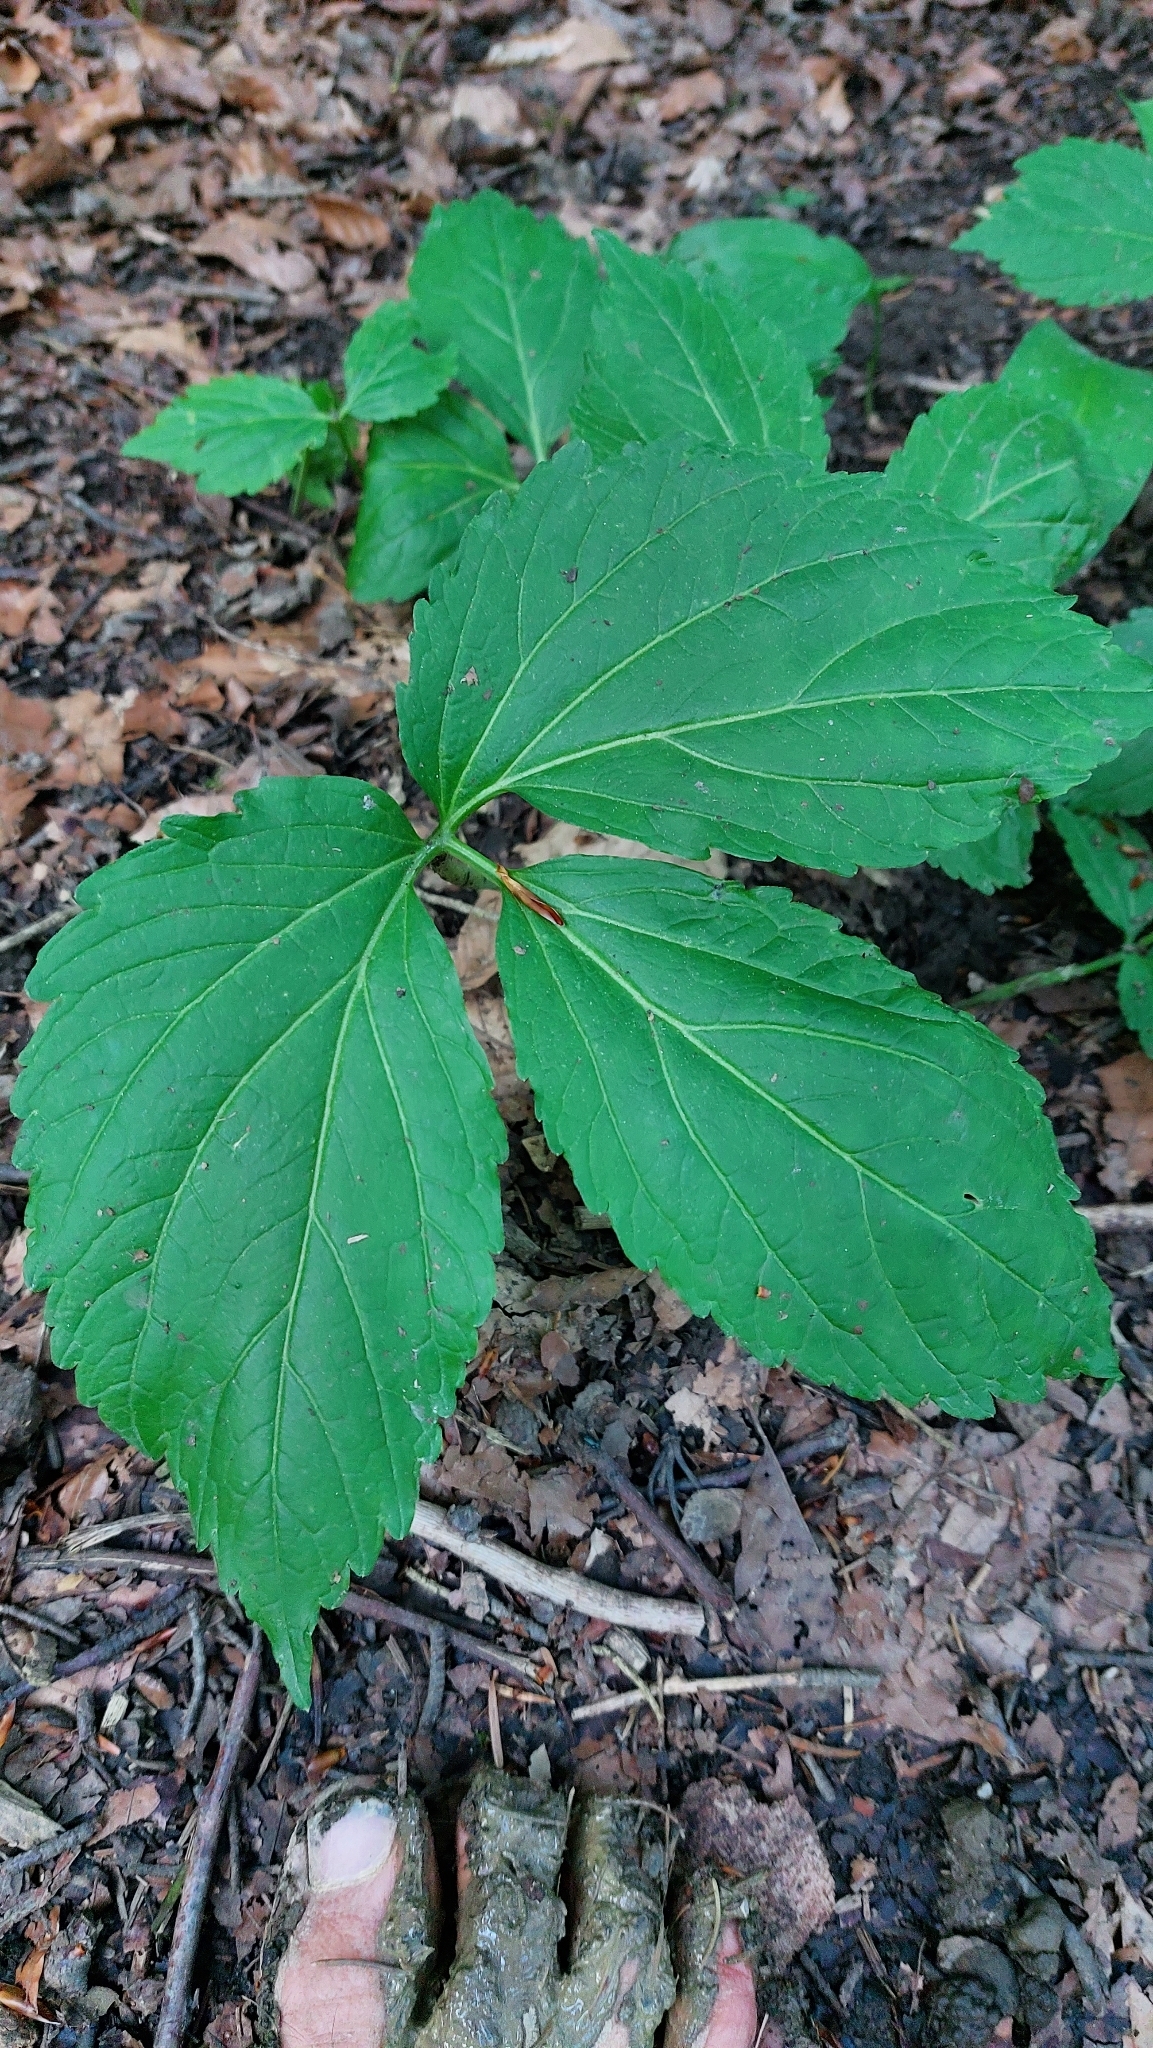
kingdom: Plantae
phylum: Tracheophyta
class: Magnoliopsida
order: Brassicales
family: Brassicaceae
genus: Cardamine
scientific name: Cardamine enneaphyllos
